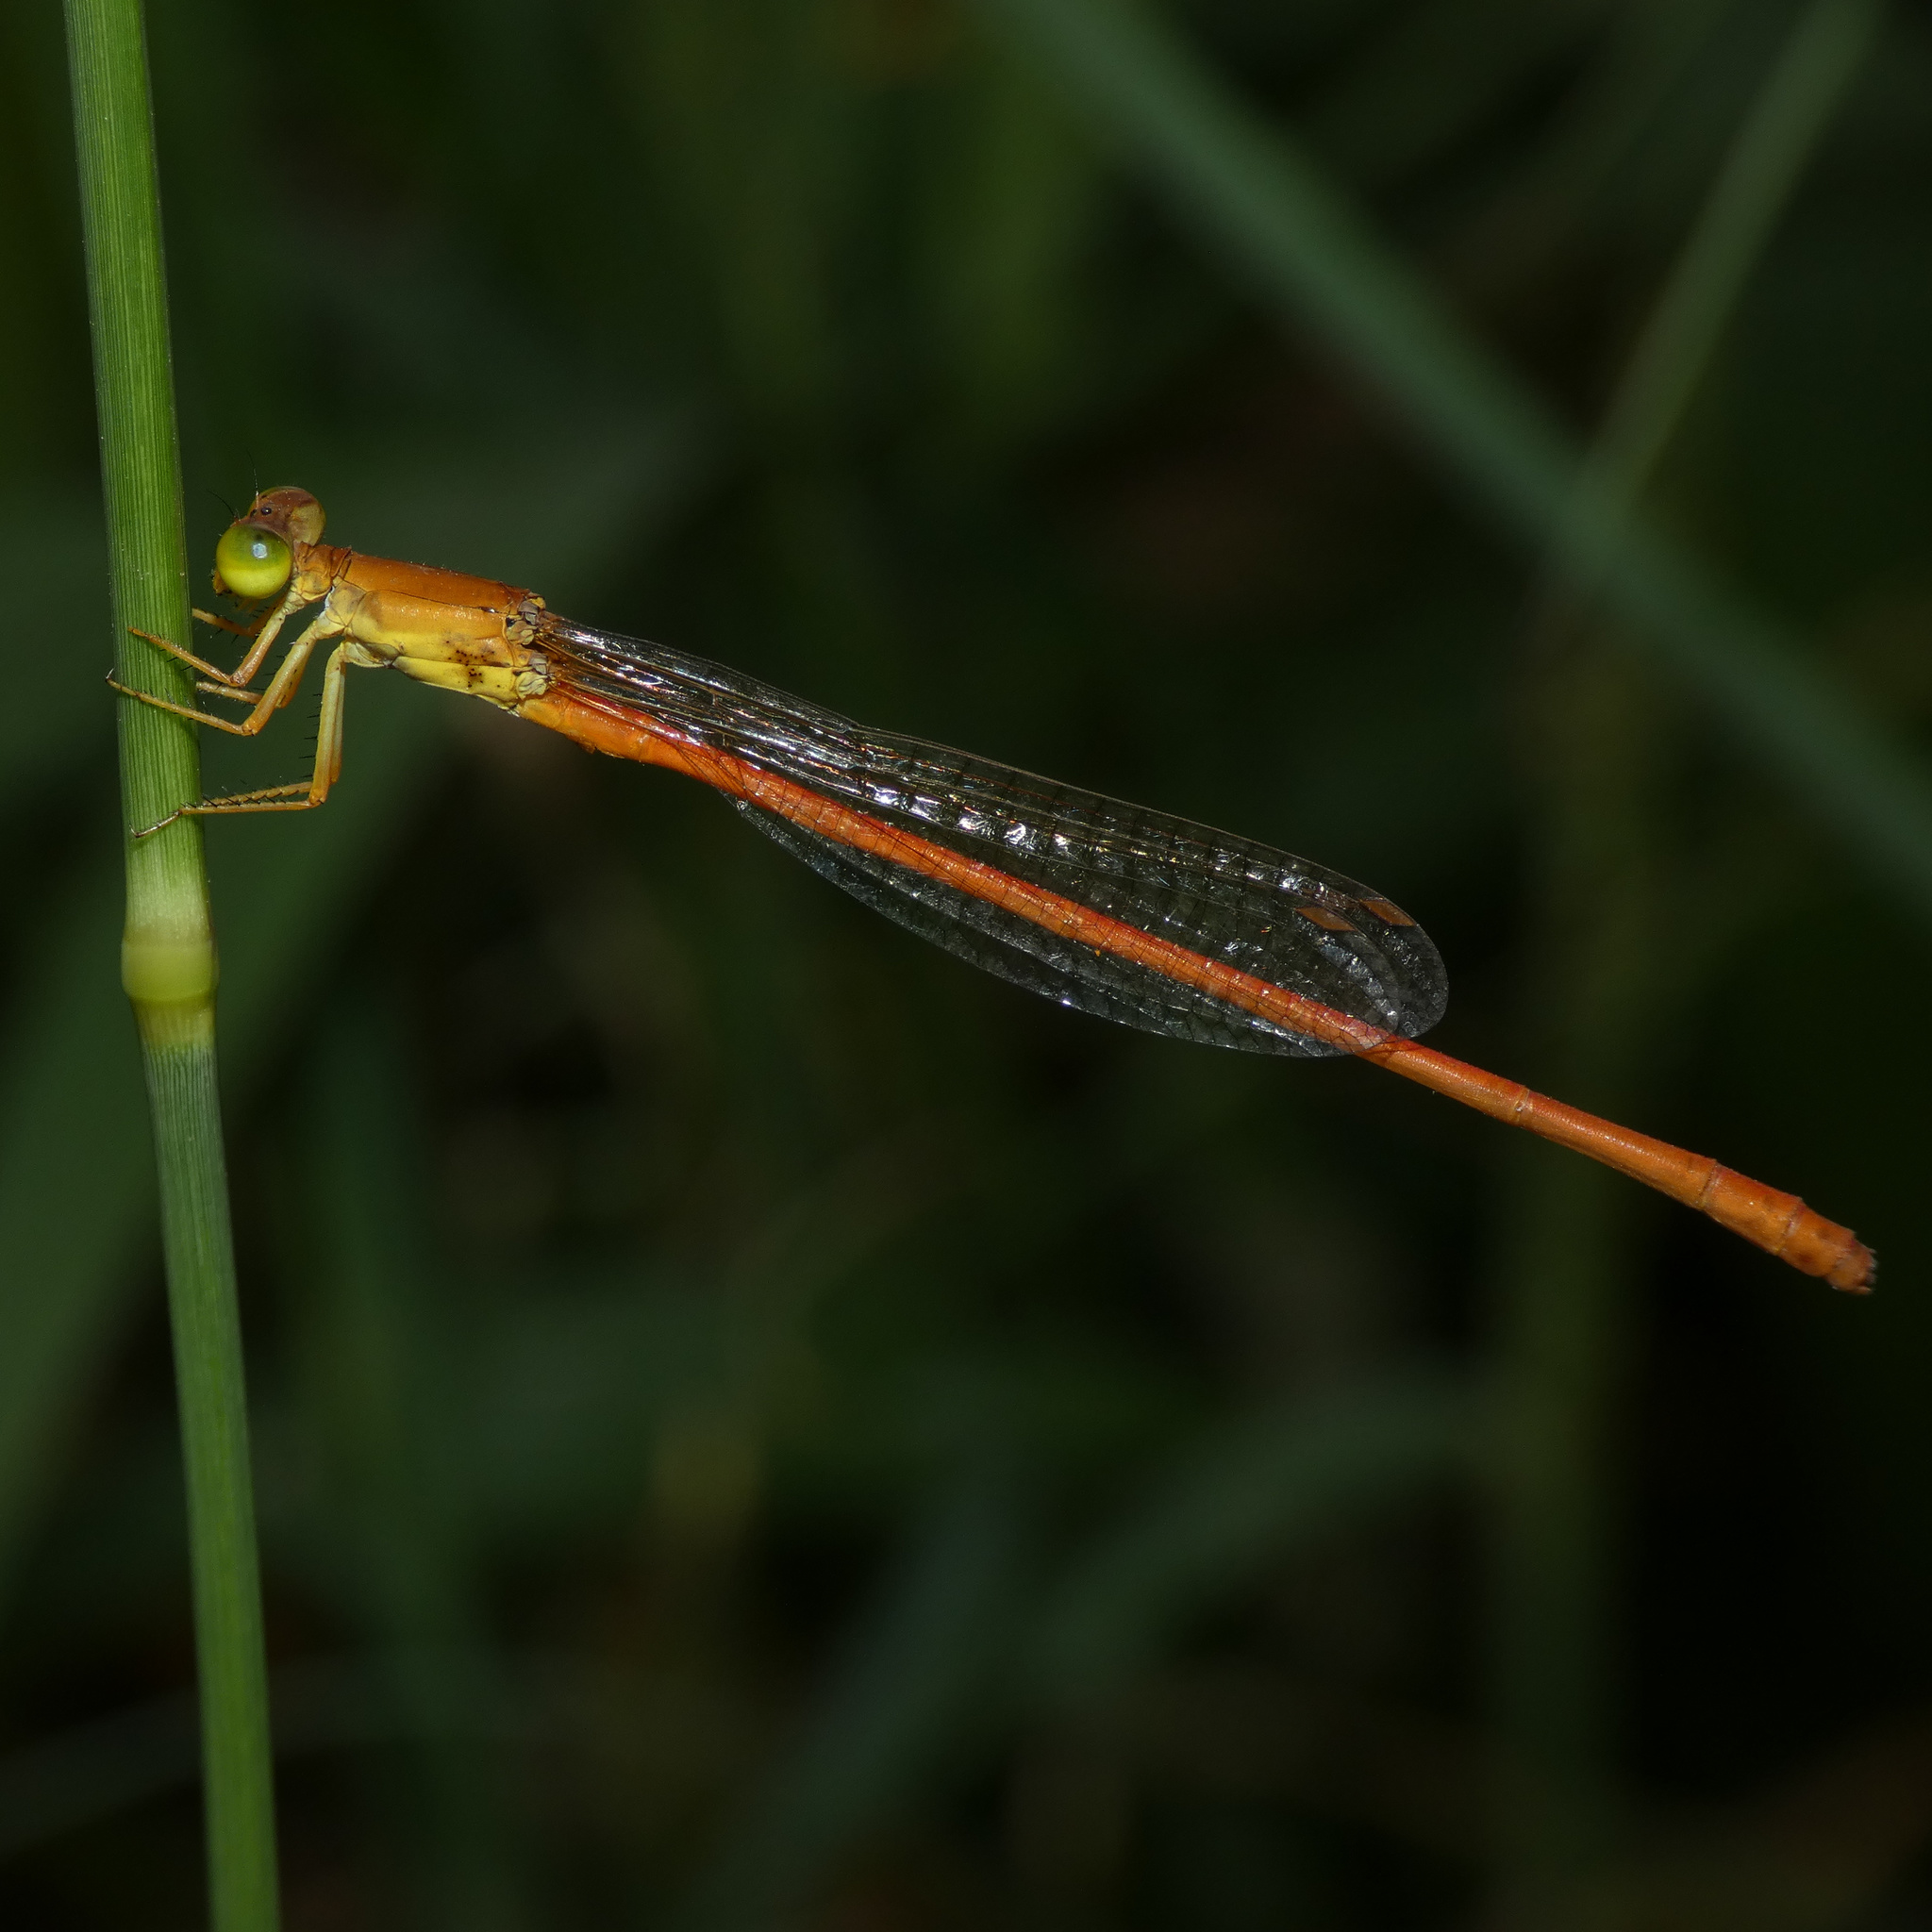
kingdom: Animalia
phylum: Arthropoda
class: Insecta
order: Odonata
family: Coenagrionidae
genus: Ceriagrion
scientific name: Ceriagrion glabrum
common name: Common pond damsel
